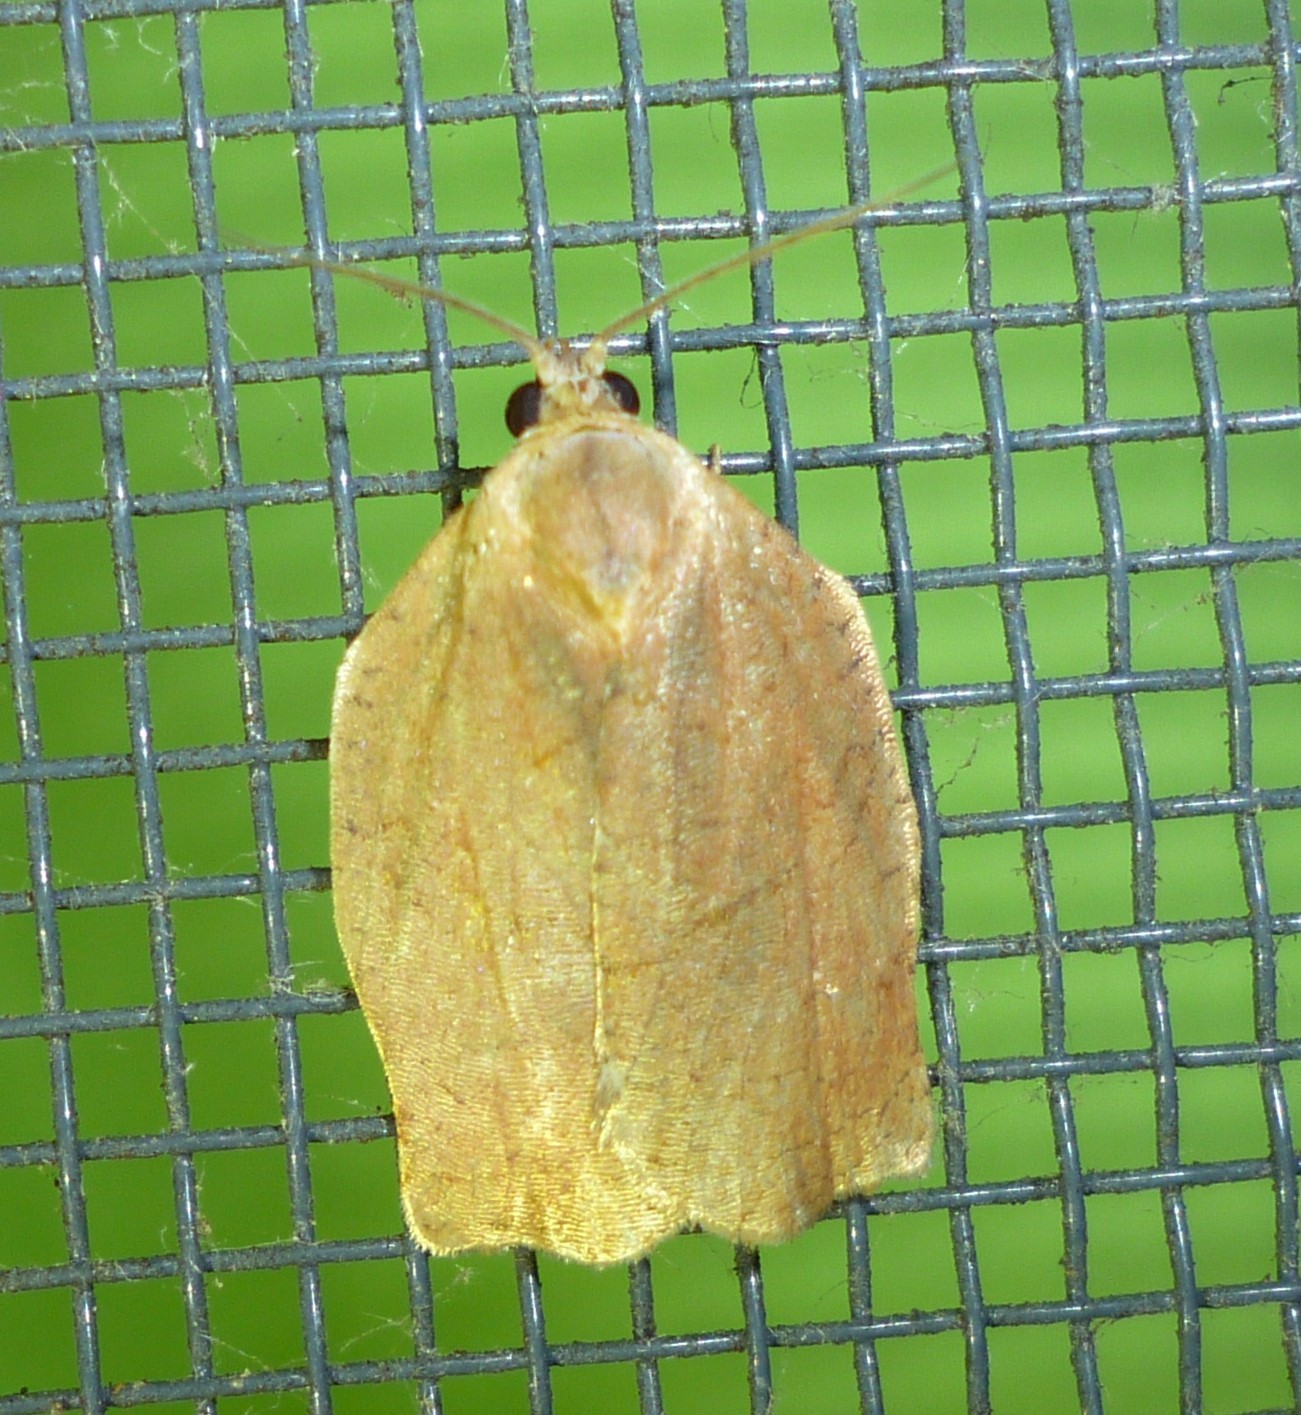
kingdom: Animalia
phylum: Arthropoda
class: Insecta
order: Lepidoptera
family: Tortricidae
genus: Archips
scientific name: Archips purpurana
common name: Omnivorous leafroller
